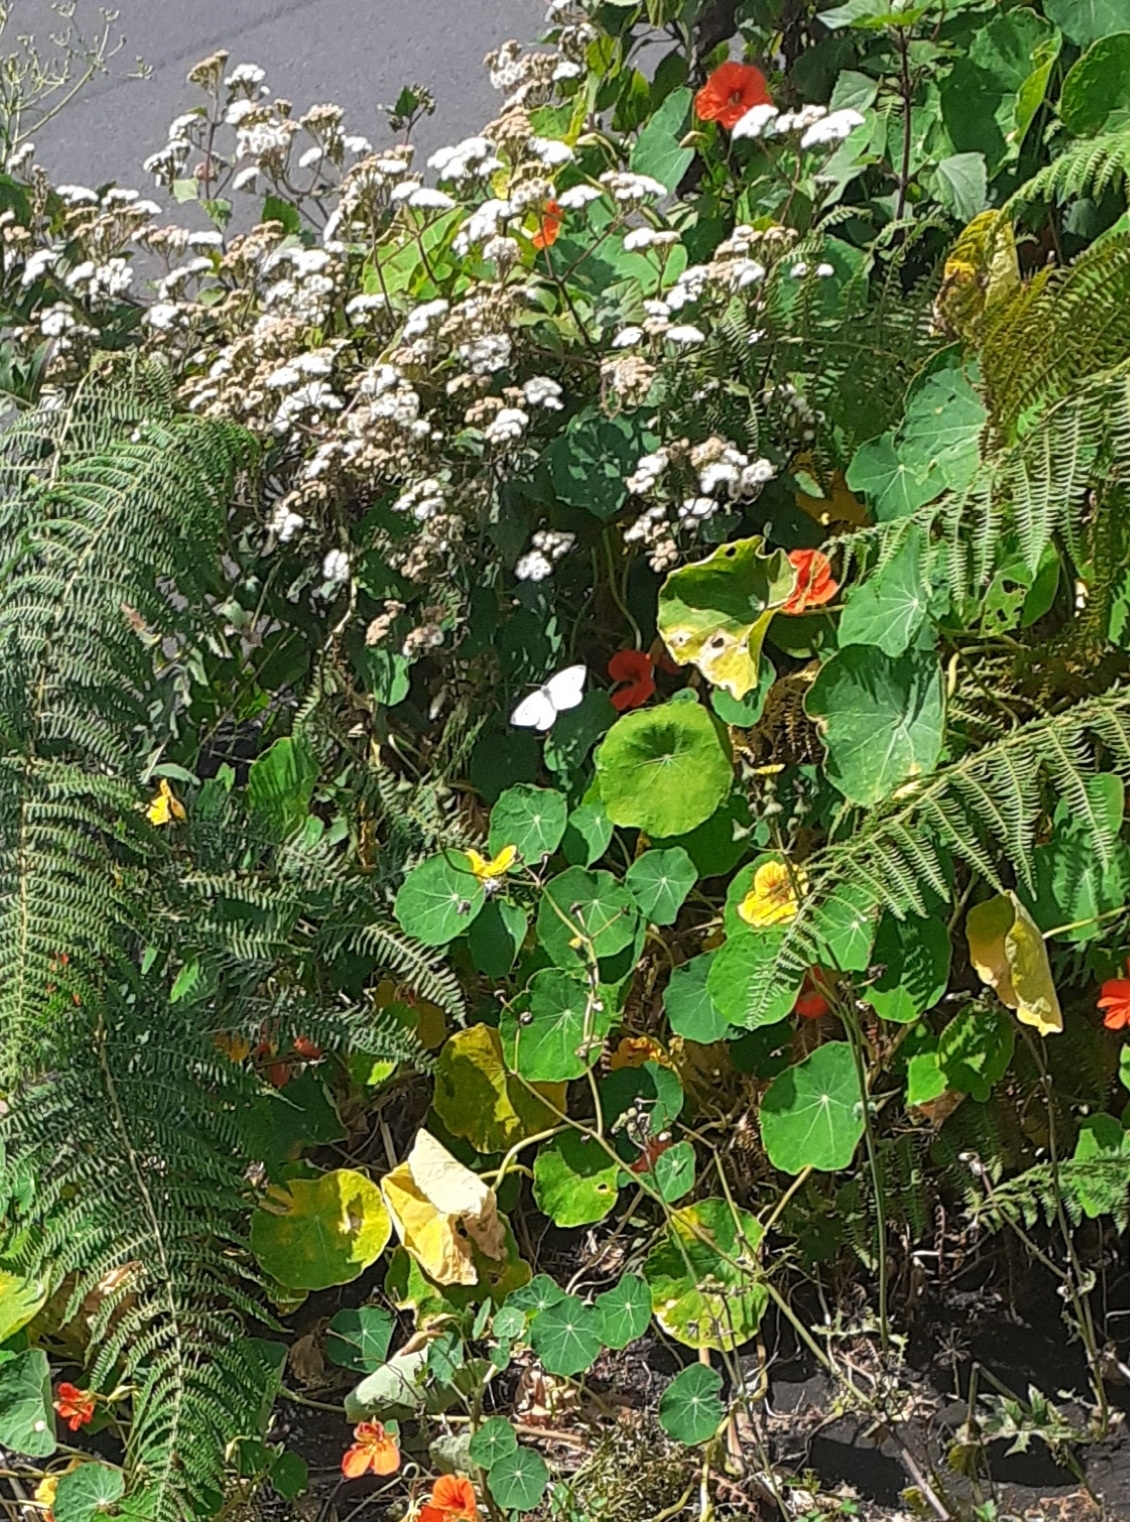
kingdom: Animalia
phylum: Arthropoda
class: Insecta
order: Lepidoptera
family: Pieridae
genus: Pieris
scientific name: Pieris rapae
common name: Small white
